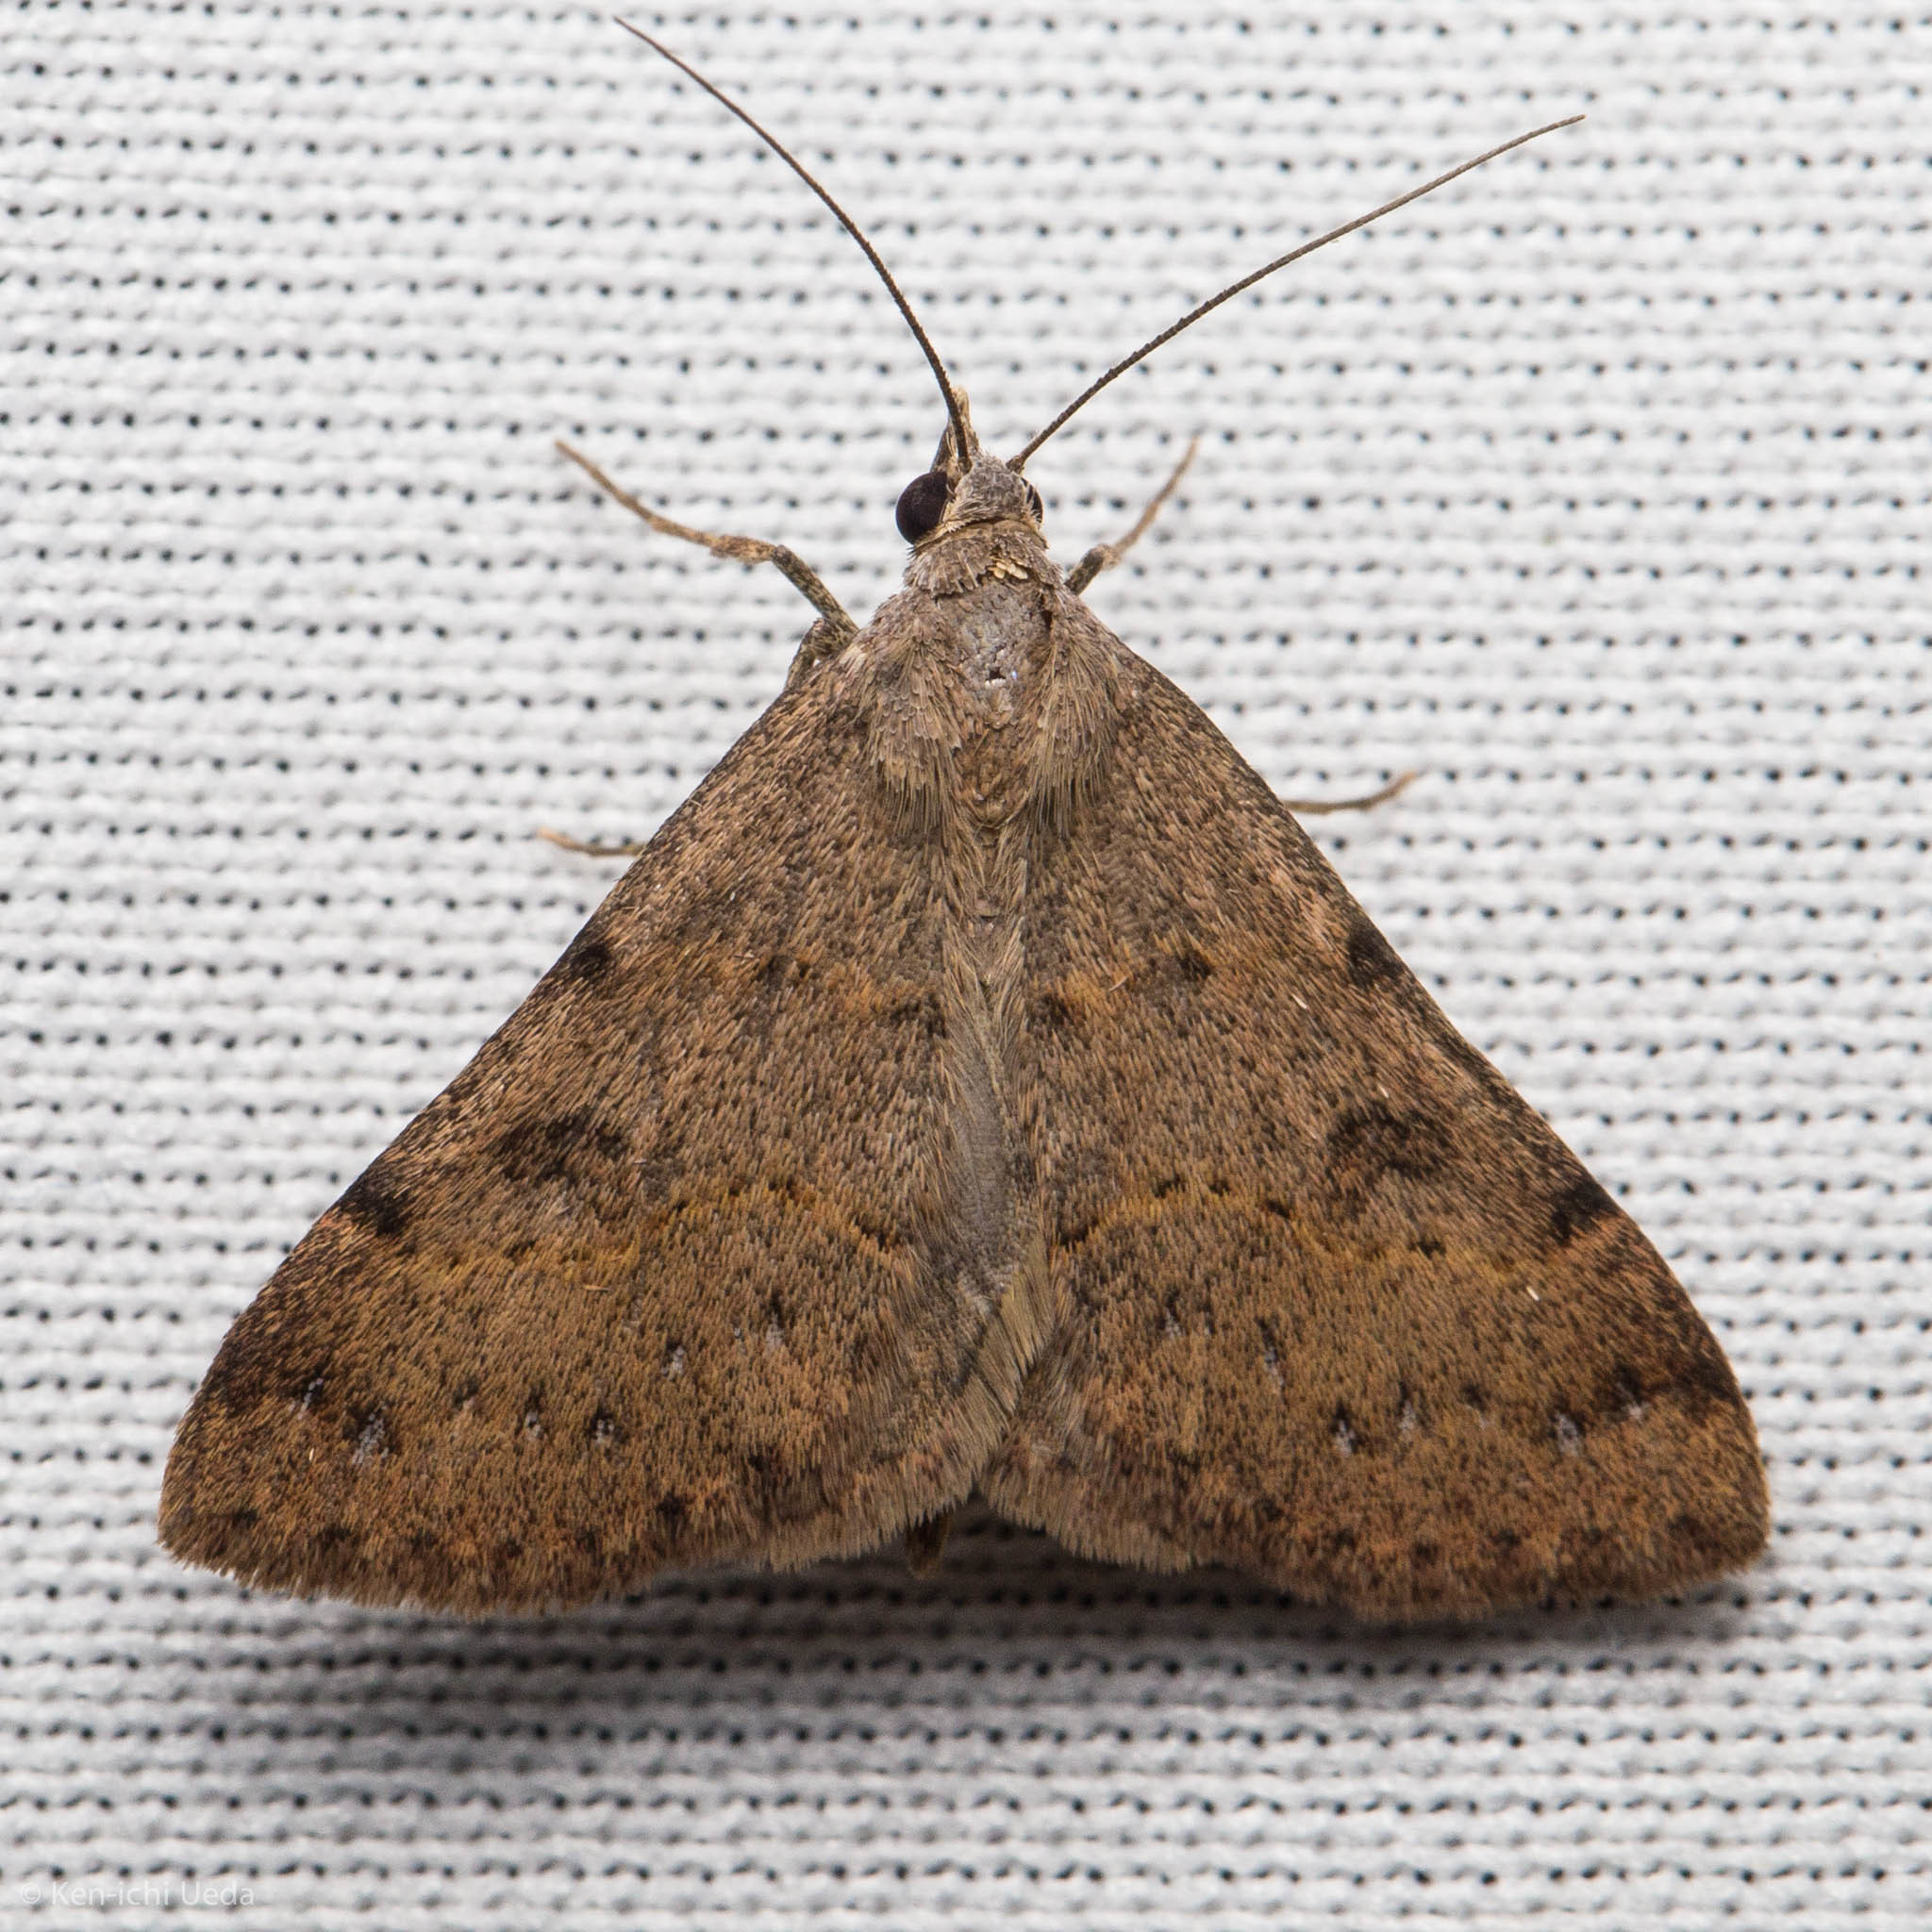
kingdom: Animalia
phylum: Arthropoda
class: Insecta
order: Lepidoptera
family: Erebidae
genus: Hemeroplanis
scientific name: Hemeroplanis historialis
